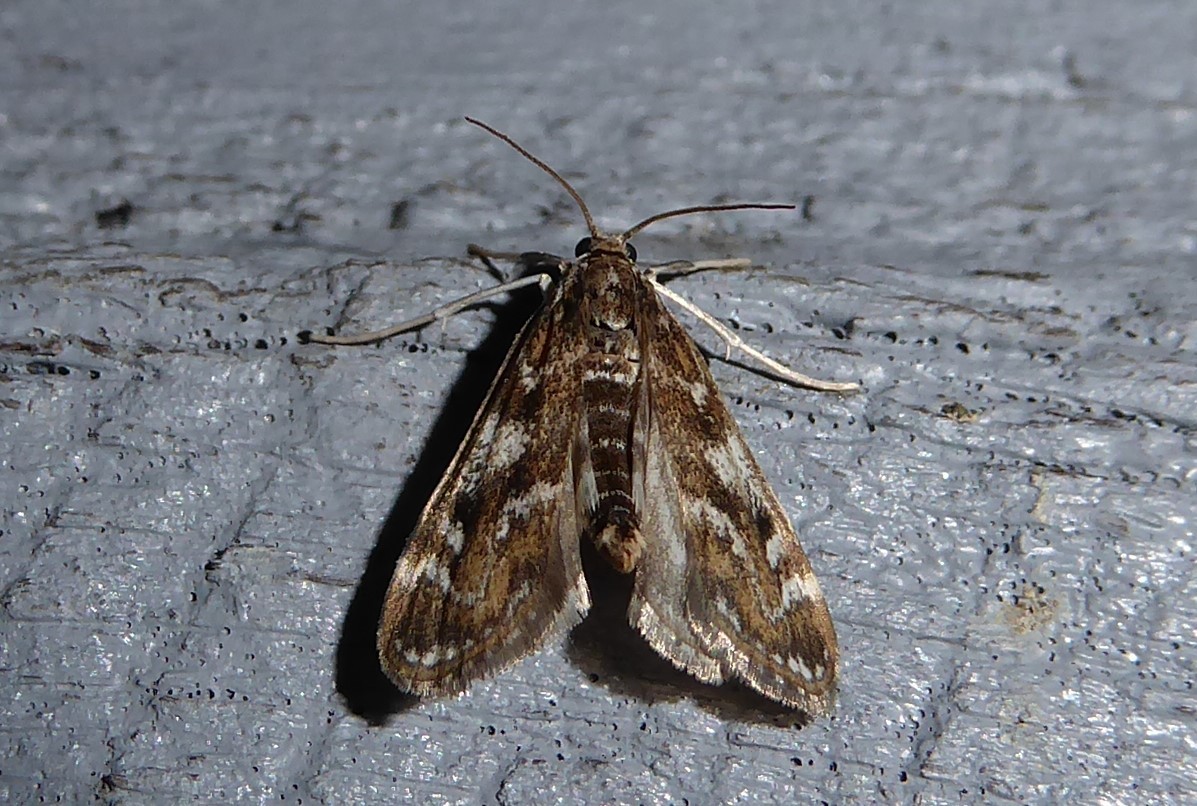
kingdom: Animalia
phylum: Arthropoda
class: Insecta
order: Lepidoptera
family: Crambidae
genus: Hygraula
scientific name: Hygraula nitens
